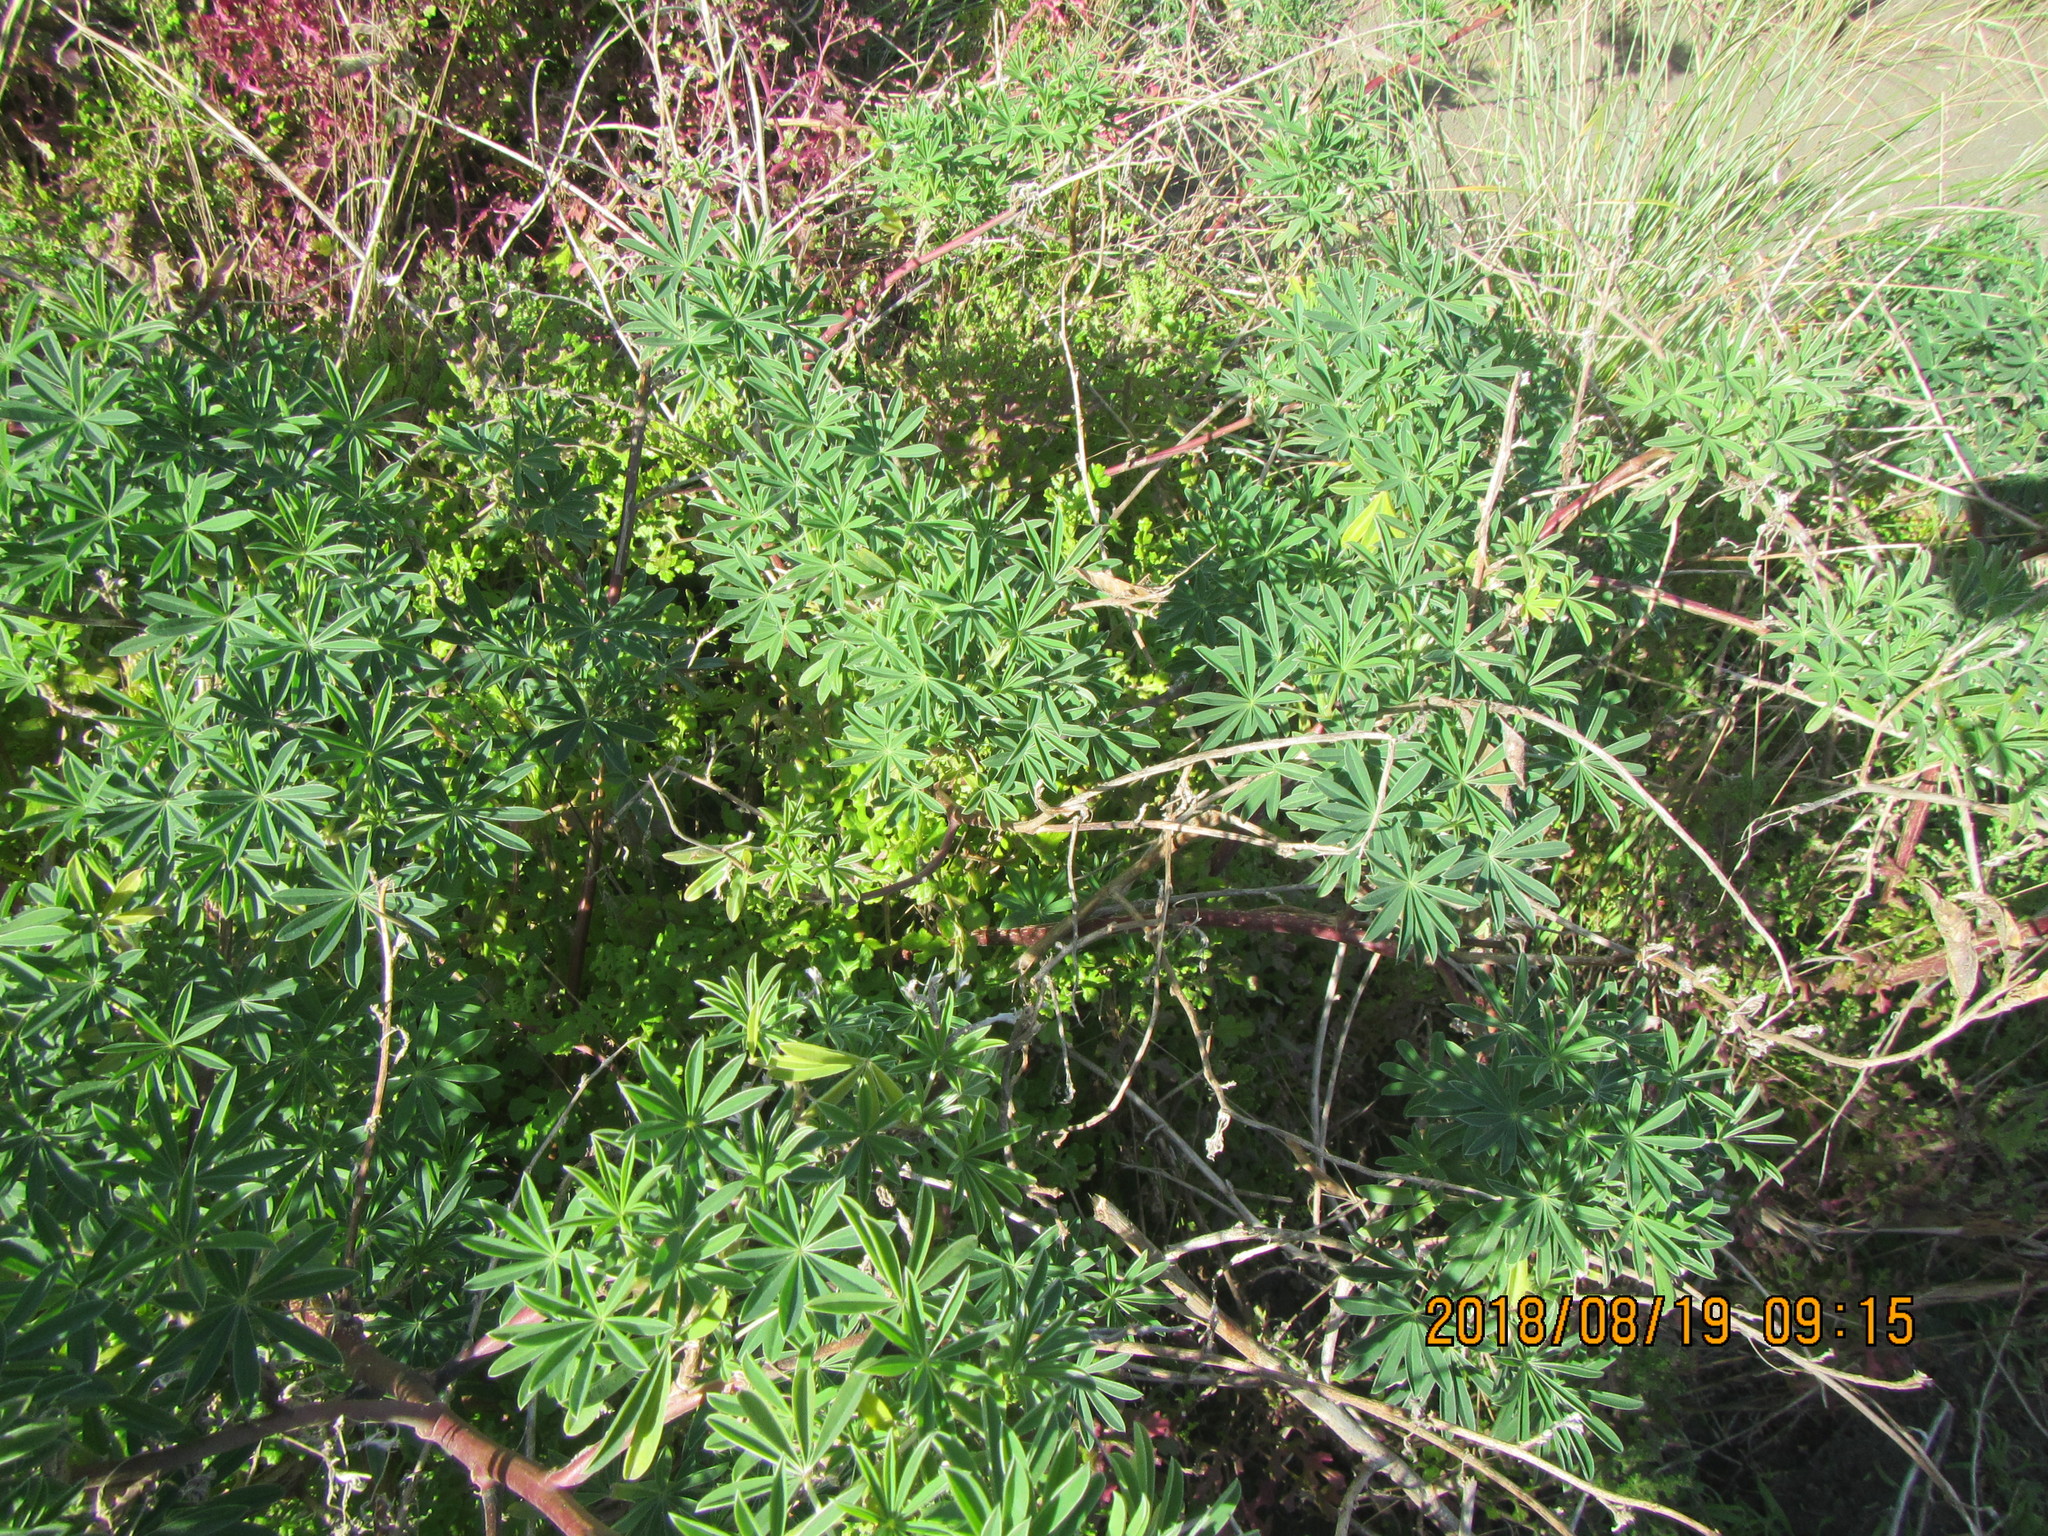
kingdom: Plantae
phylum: Tracheophyta
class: Magnoliopsida
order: Fabales
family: Fabaceae
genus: Lupinus
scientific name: Lupinus arboreus
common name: Yellow bush lupine
